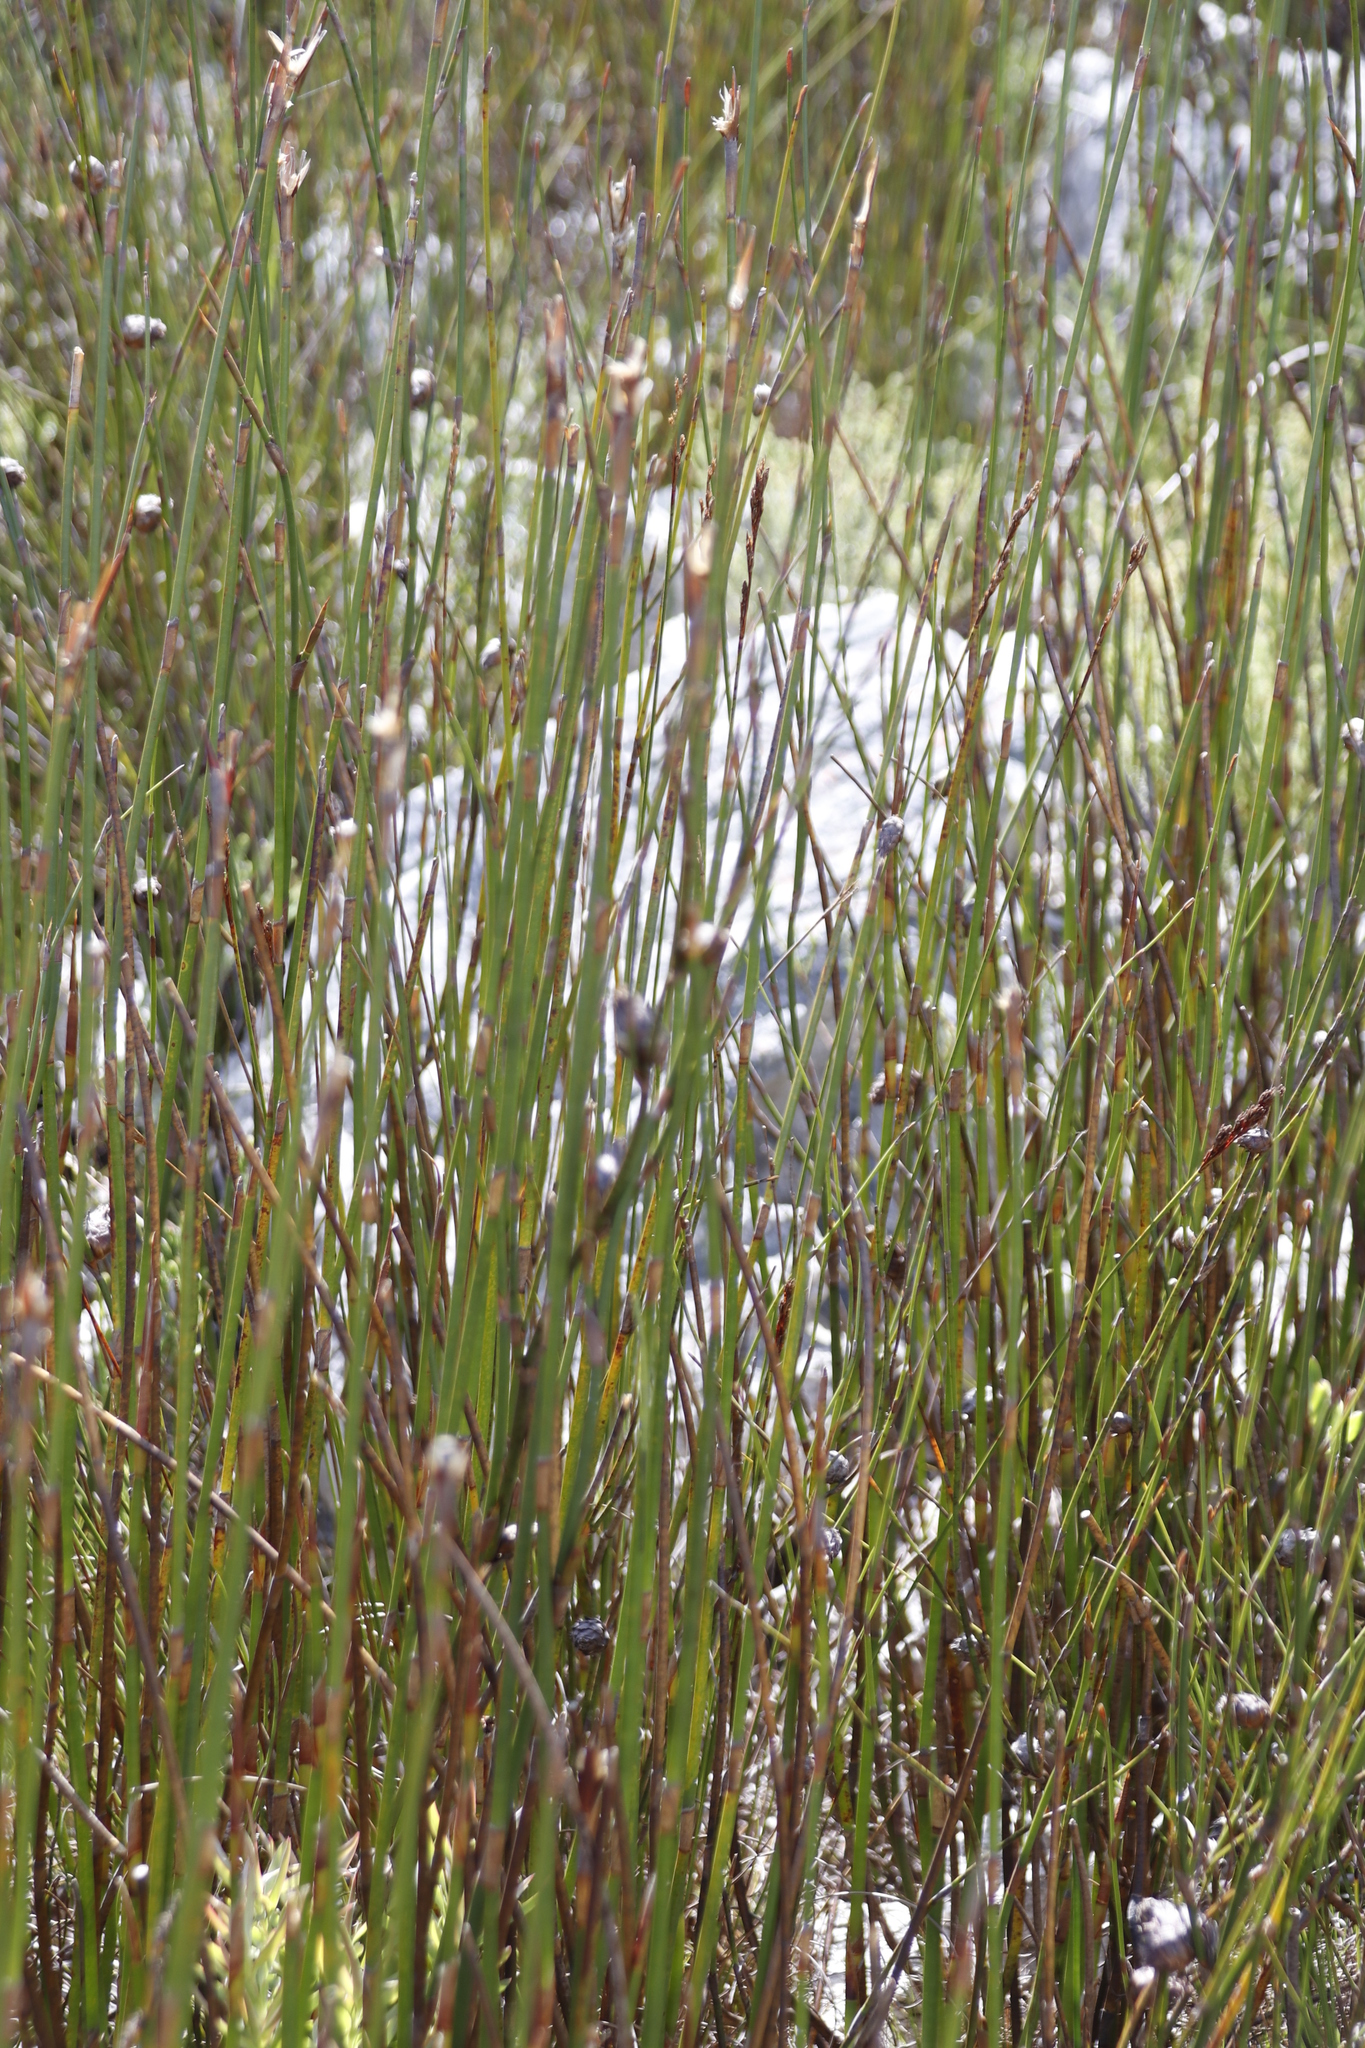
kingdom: Plantae
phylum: Tracheophyta
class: Liliopsida
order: Poales
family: Restionaceae
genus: Restio
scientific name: Restio dispar
